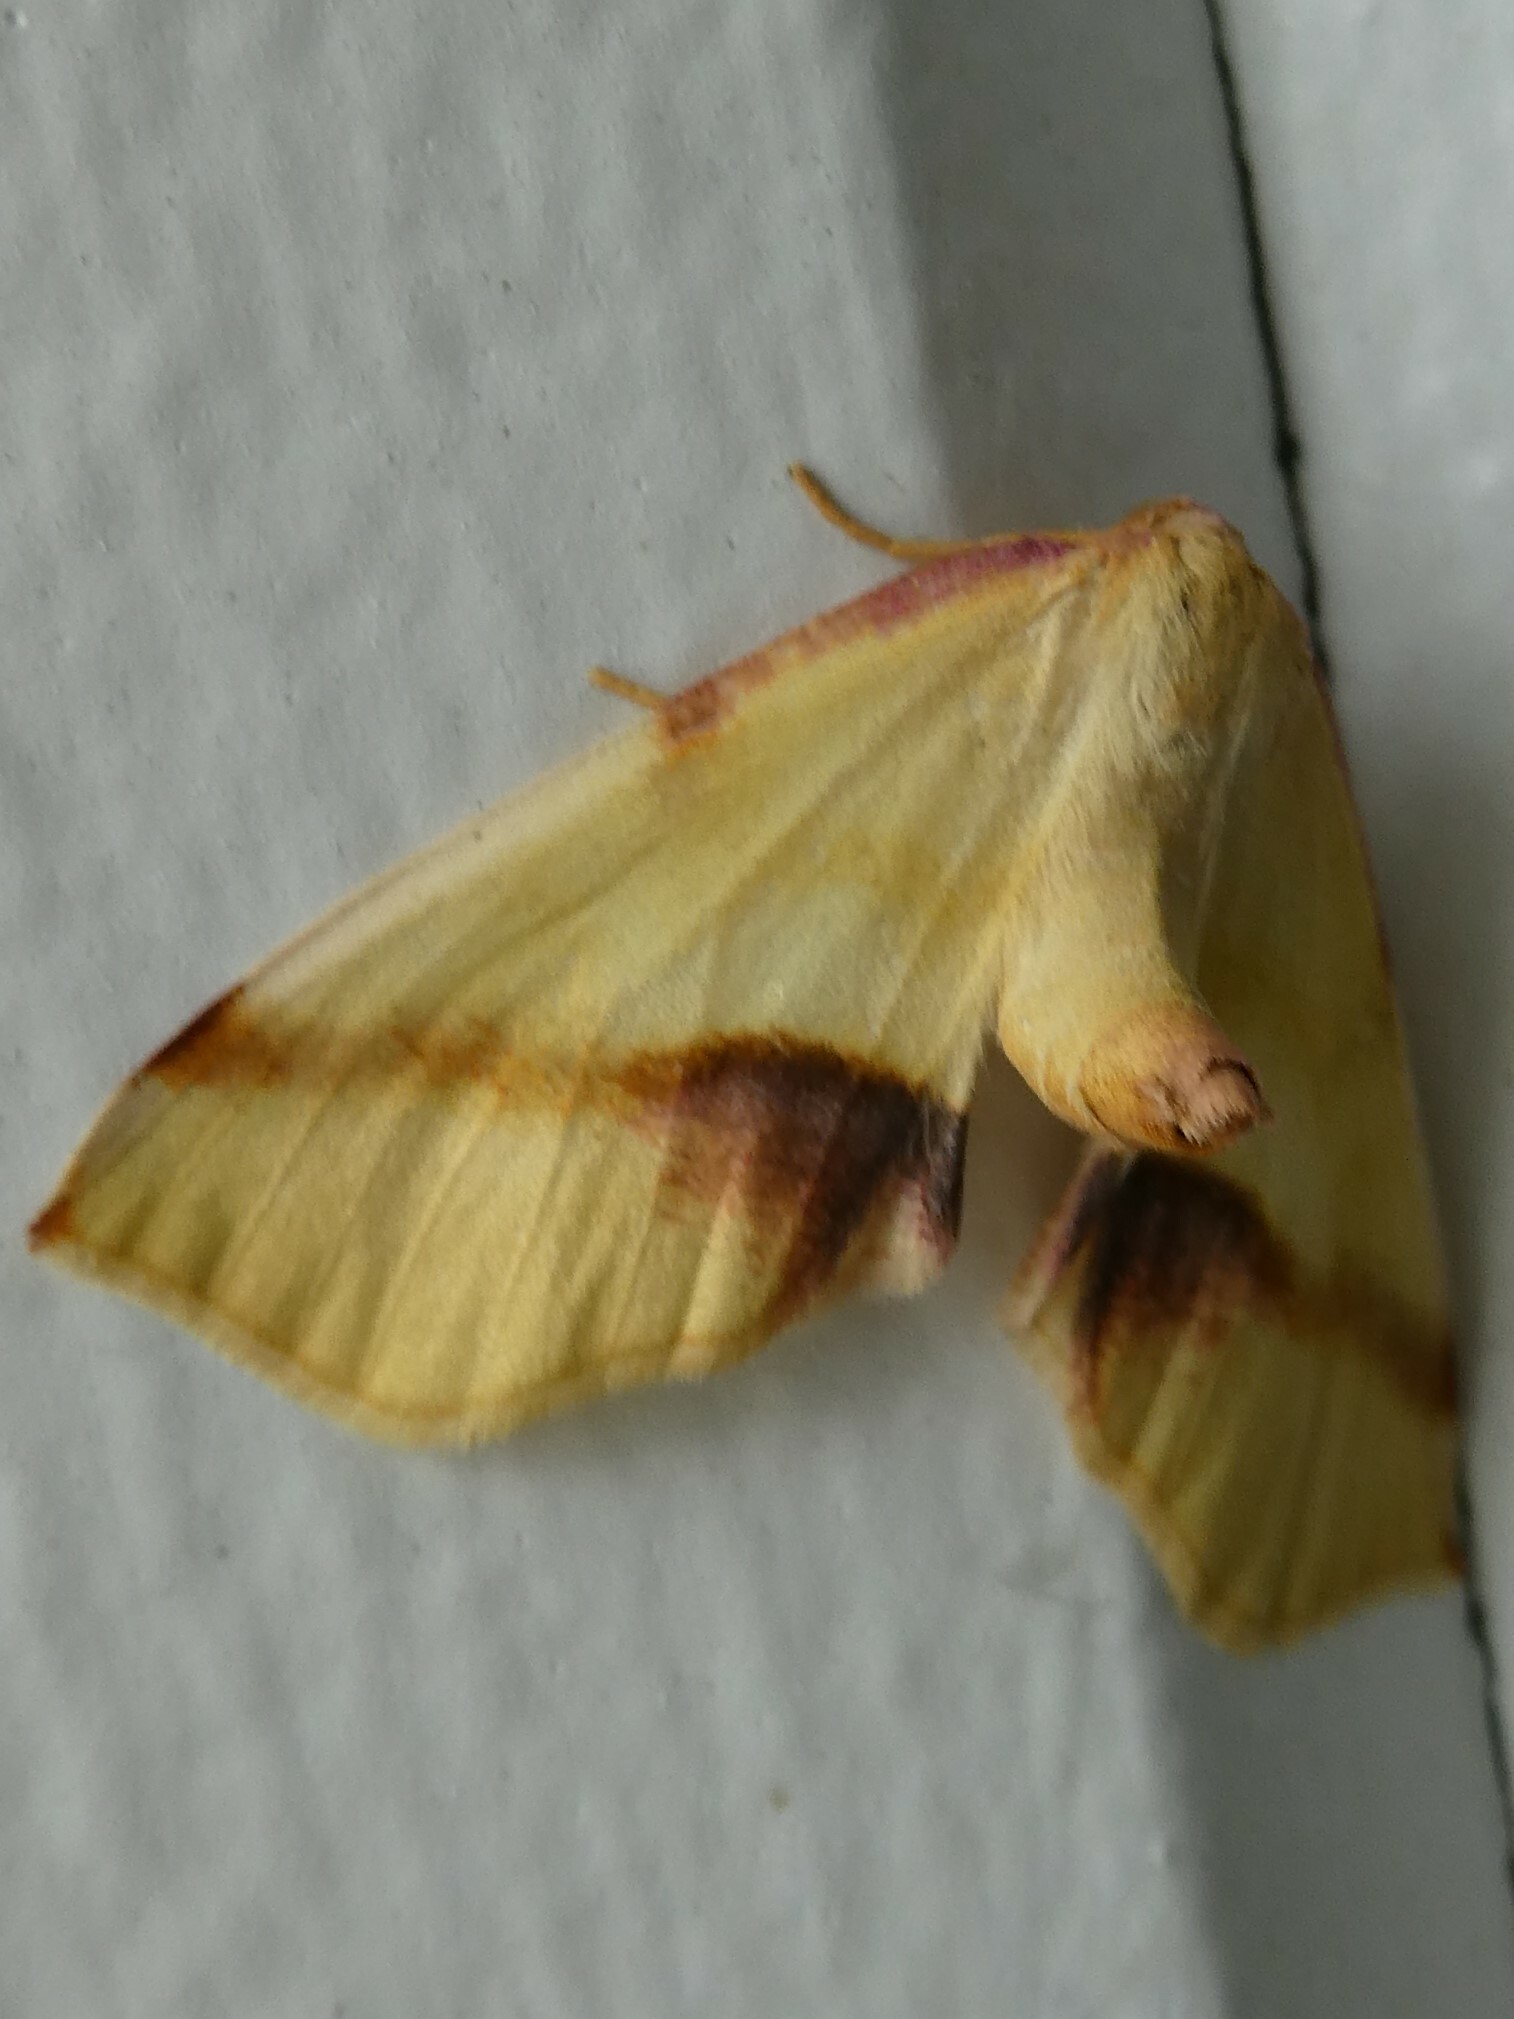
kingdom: Animalia
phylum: Arthropoda
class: Insecta
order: Lepidoptera
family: Geometridae
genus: Plagodis
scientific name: Plagodis serinaria
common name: Lemon plagodis
